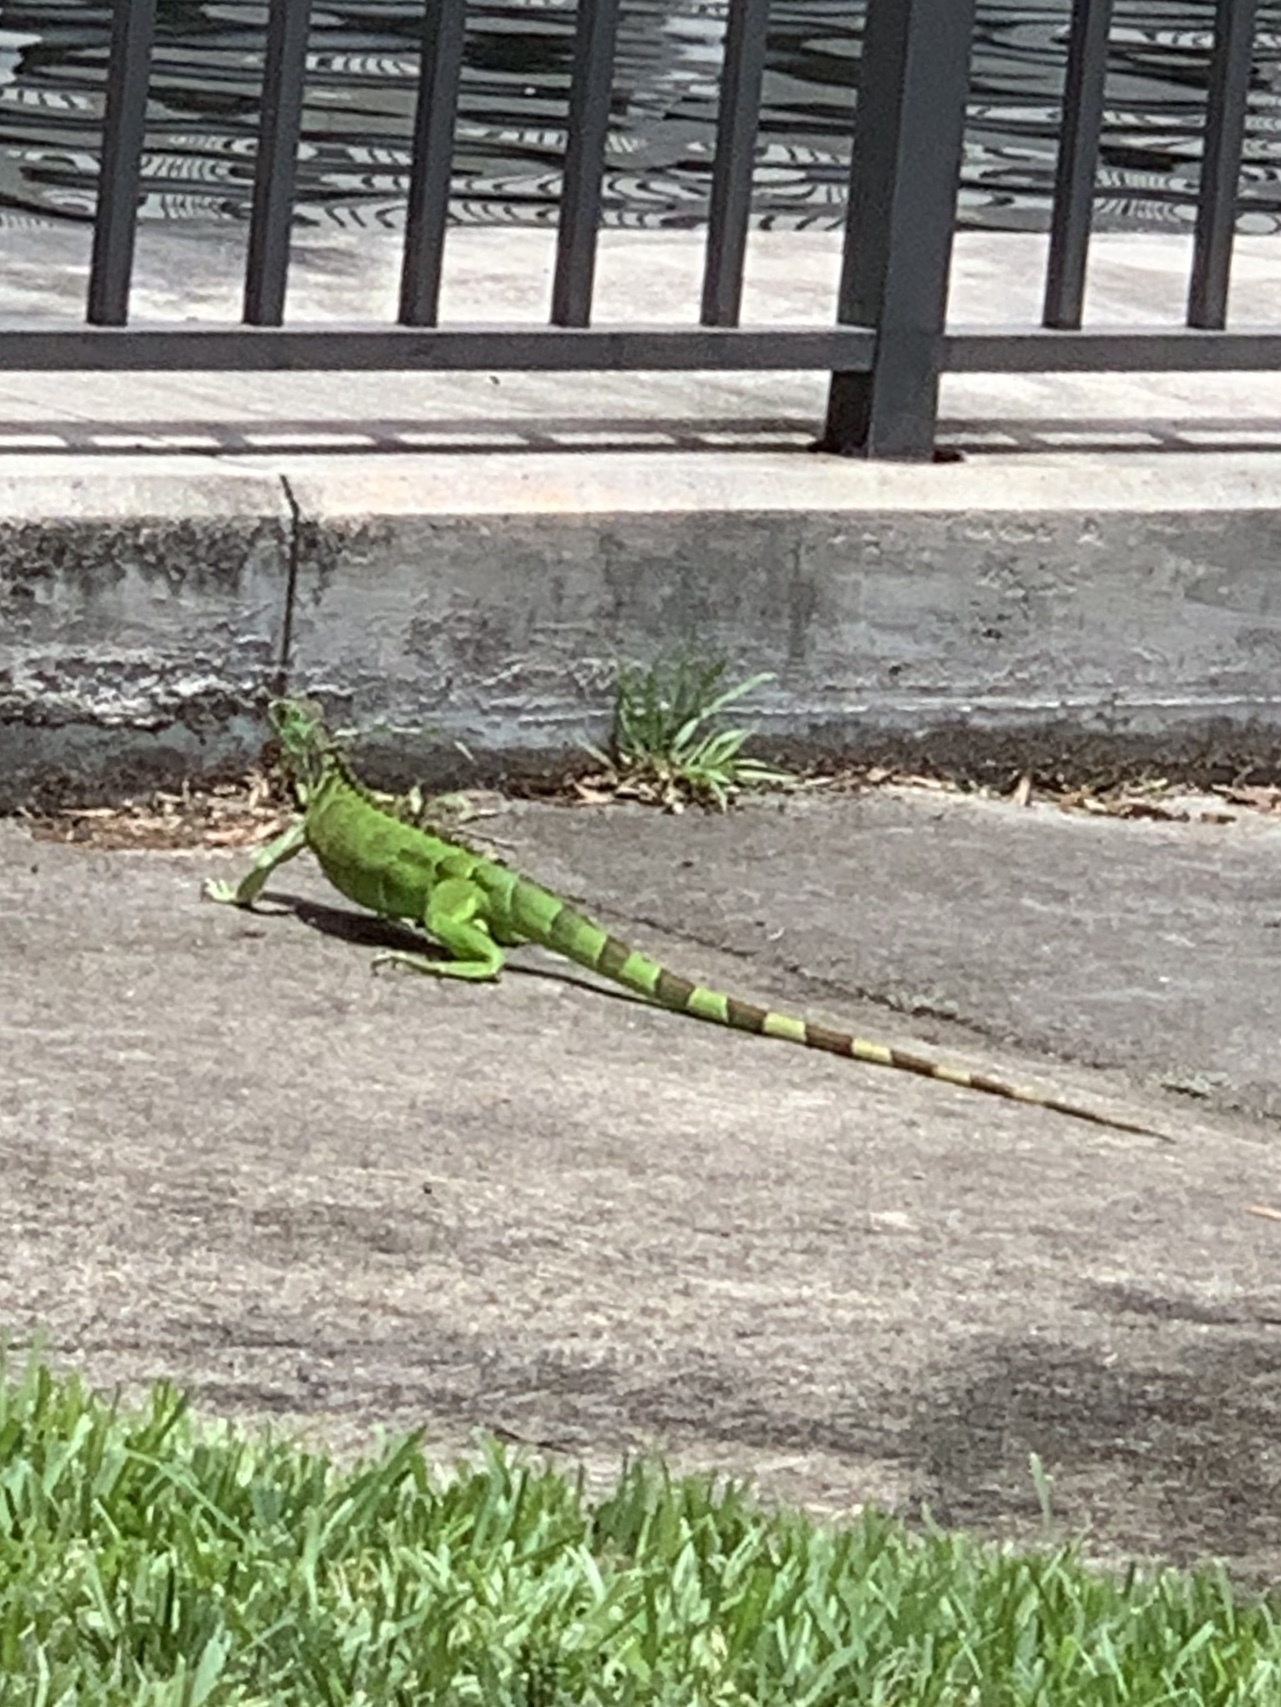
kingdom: Animalia
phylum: Chordata
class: Squamata
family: Iguanidae
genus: Iguana
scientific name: Iguana iguana
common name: Green iguana
